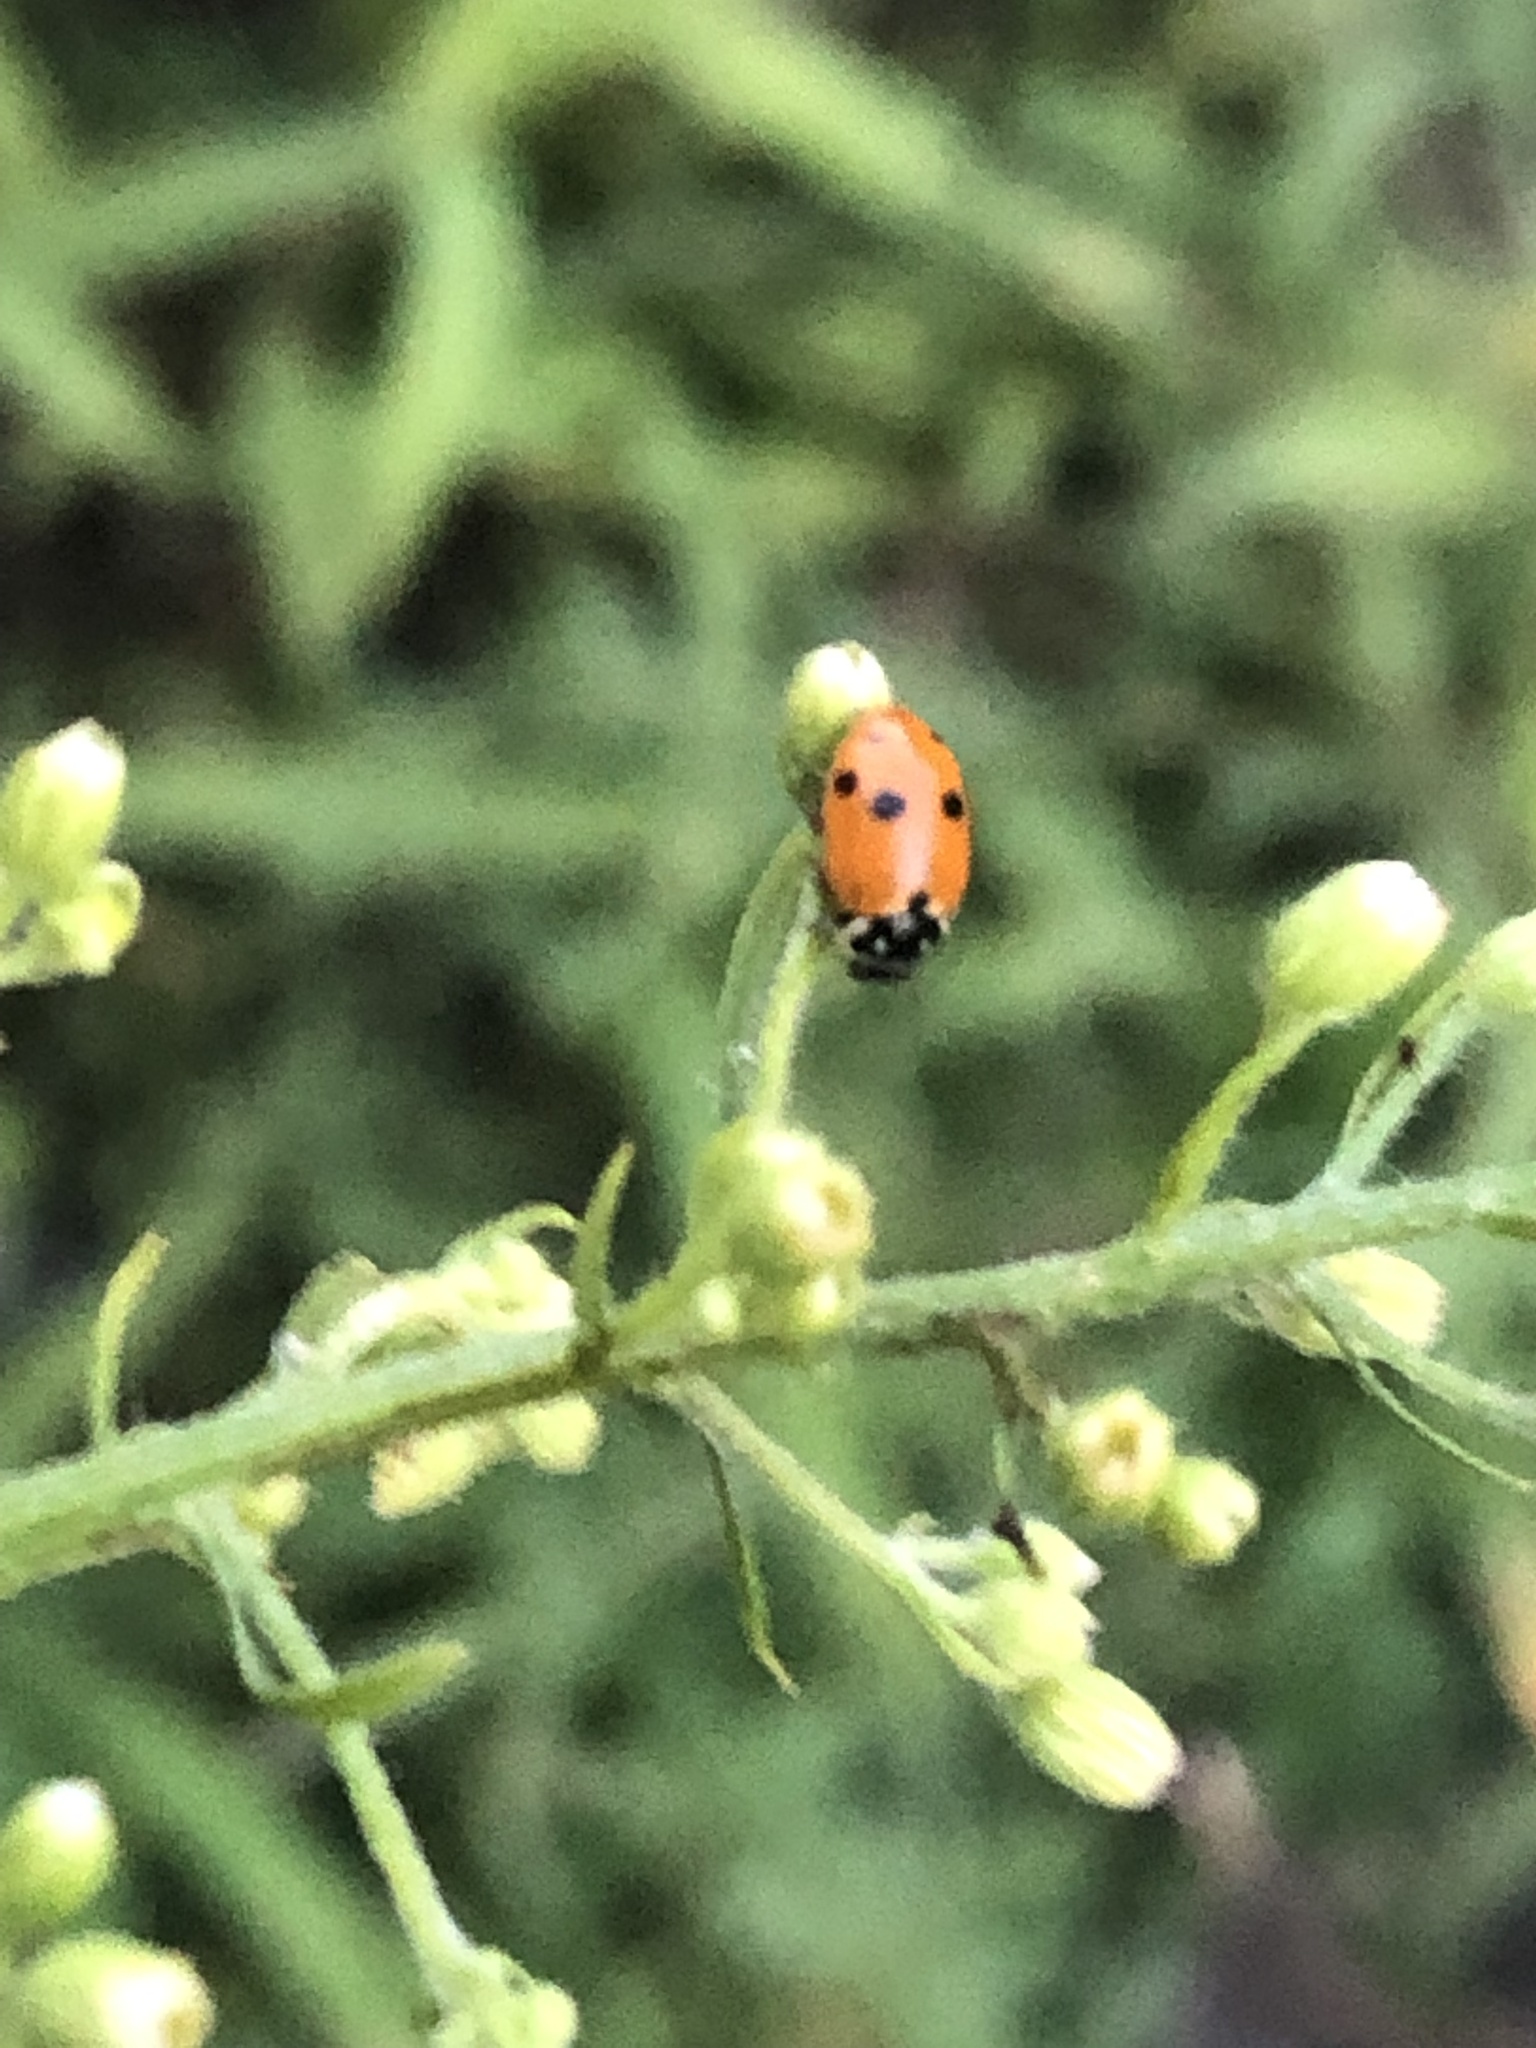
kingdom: Animalia
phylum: Arthropoda
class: Insecta
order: Coleoptera
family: Coccinellidae
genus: Hippodamia
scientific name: Hippodamia variegata
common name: Ladybird beetle
